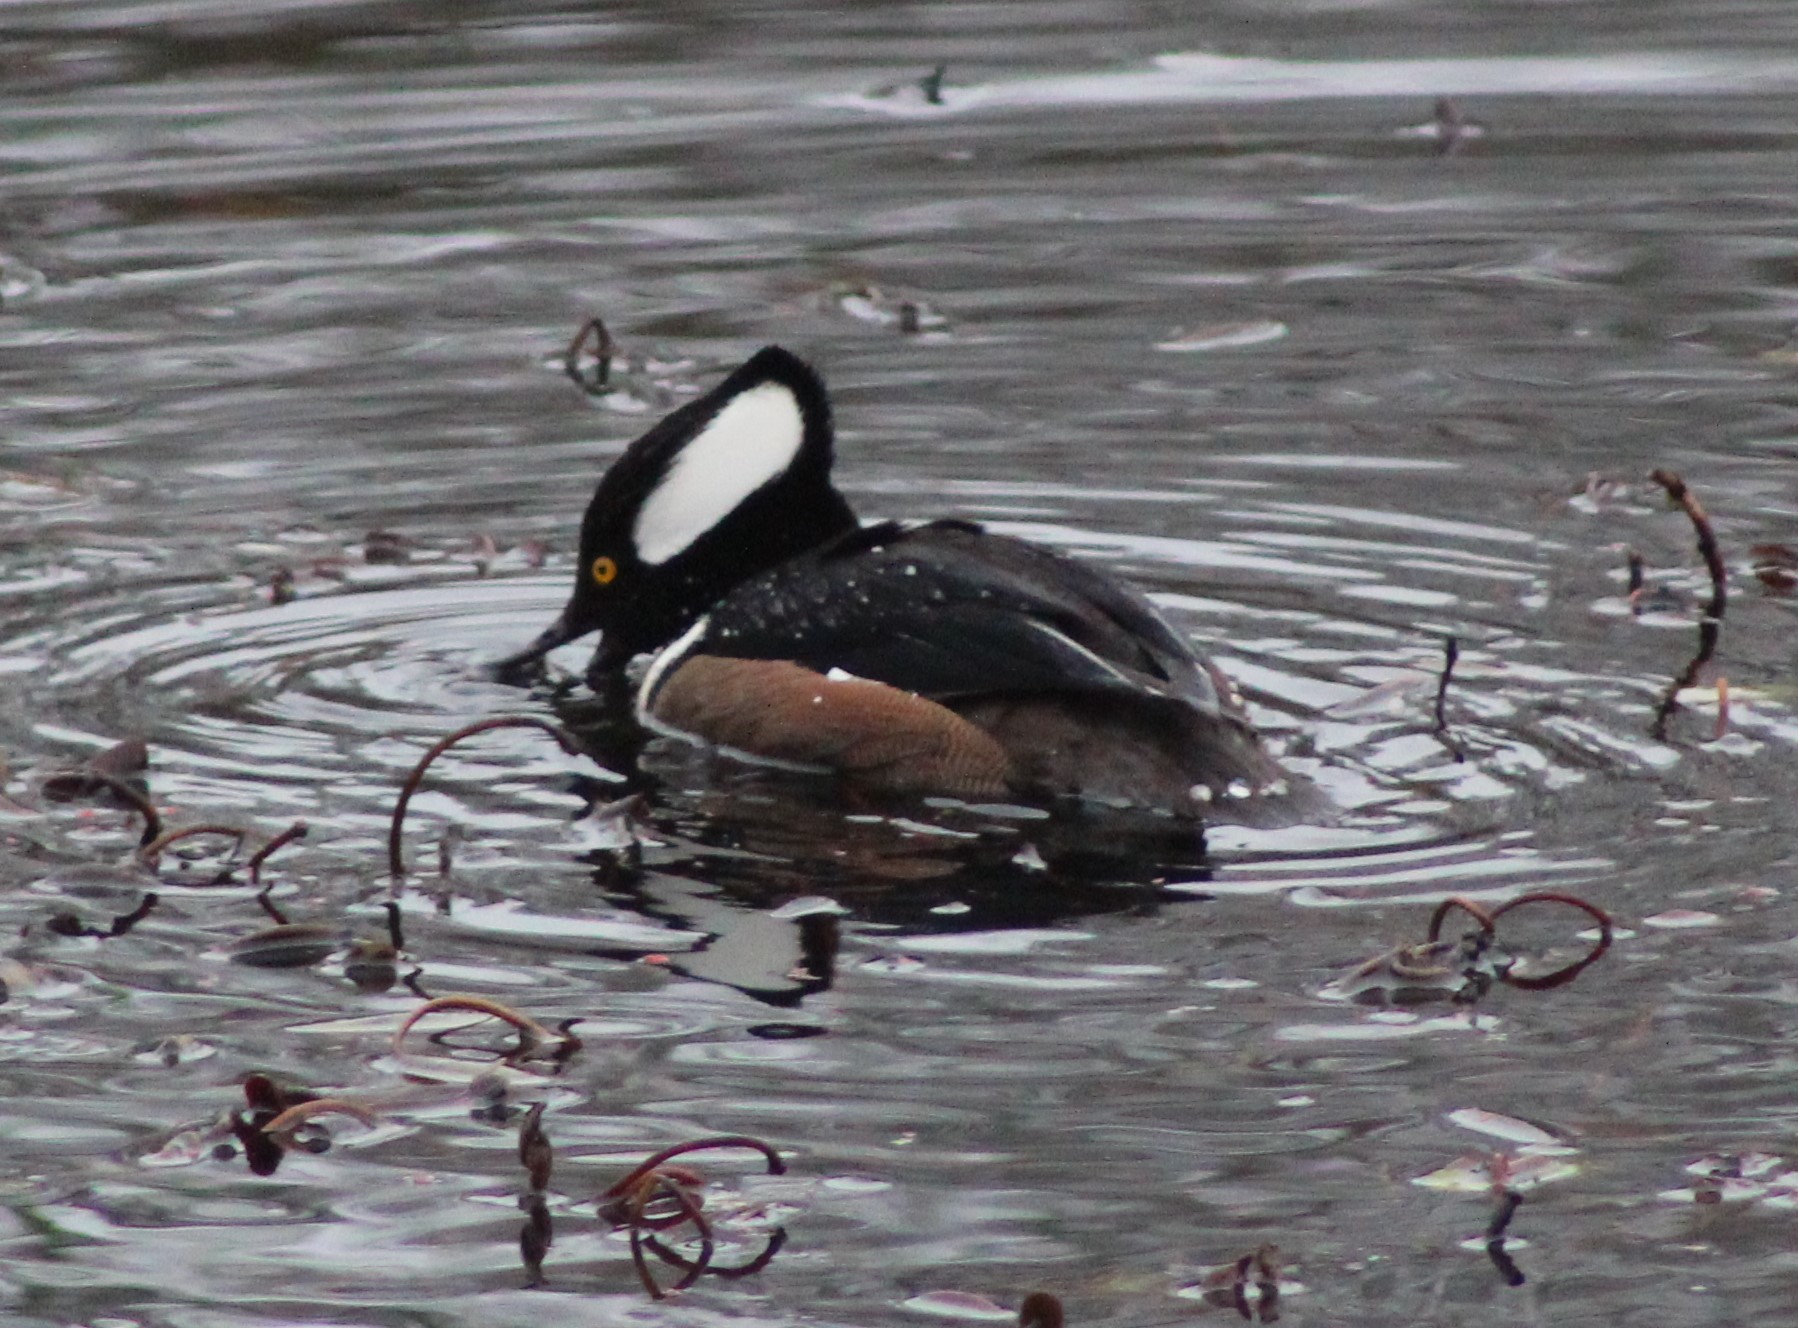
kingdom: Animalia
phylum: Chordata
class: Aves
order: Anseriformes
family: Anatidae
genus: Lophodytes
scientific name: Lophodytes cucullatus
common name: Hooded merganser
